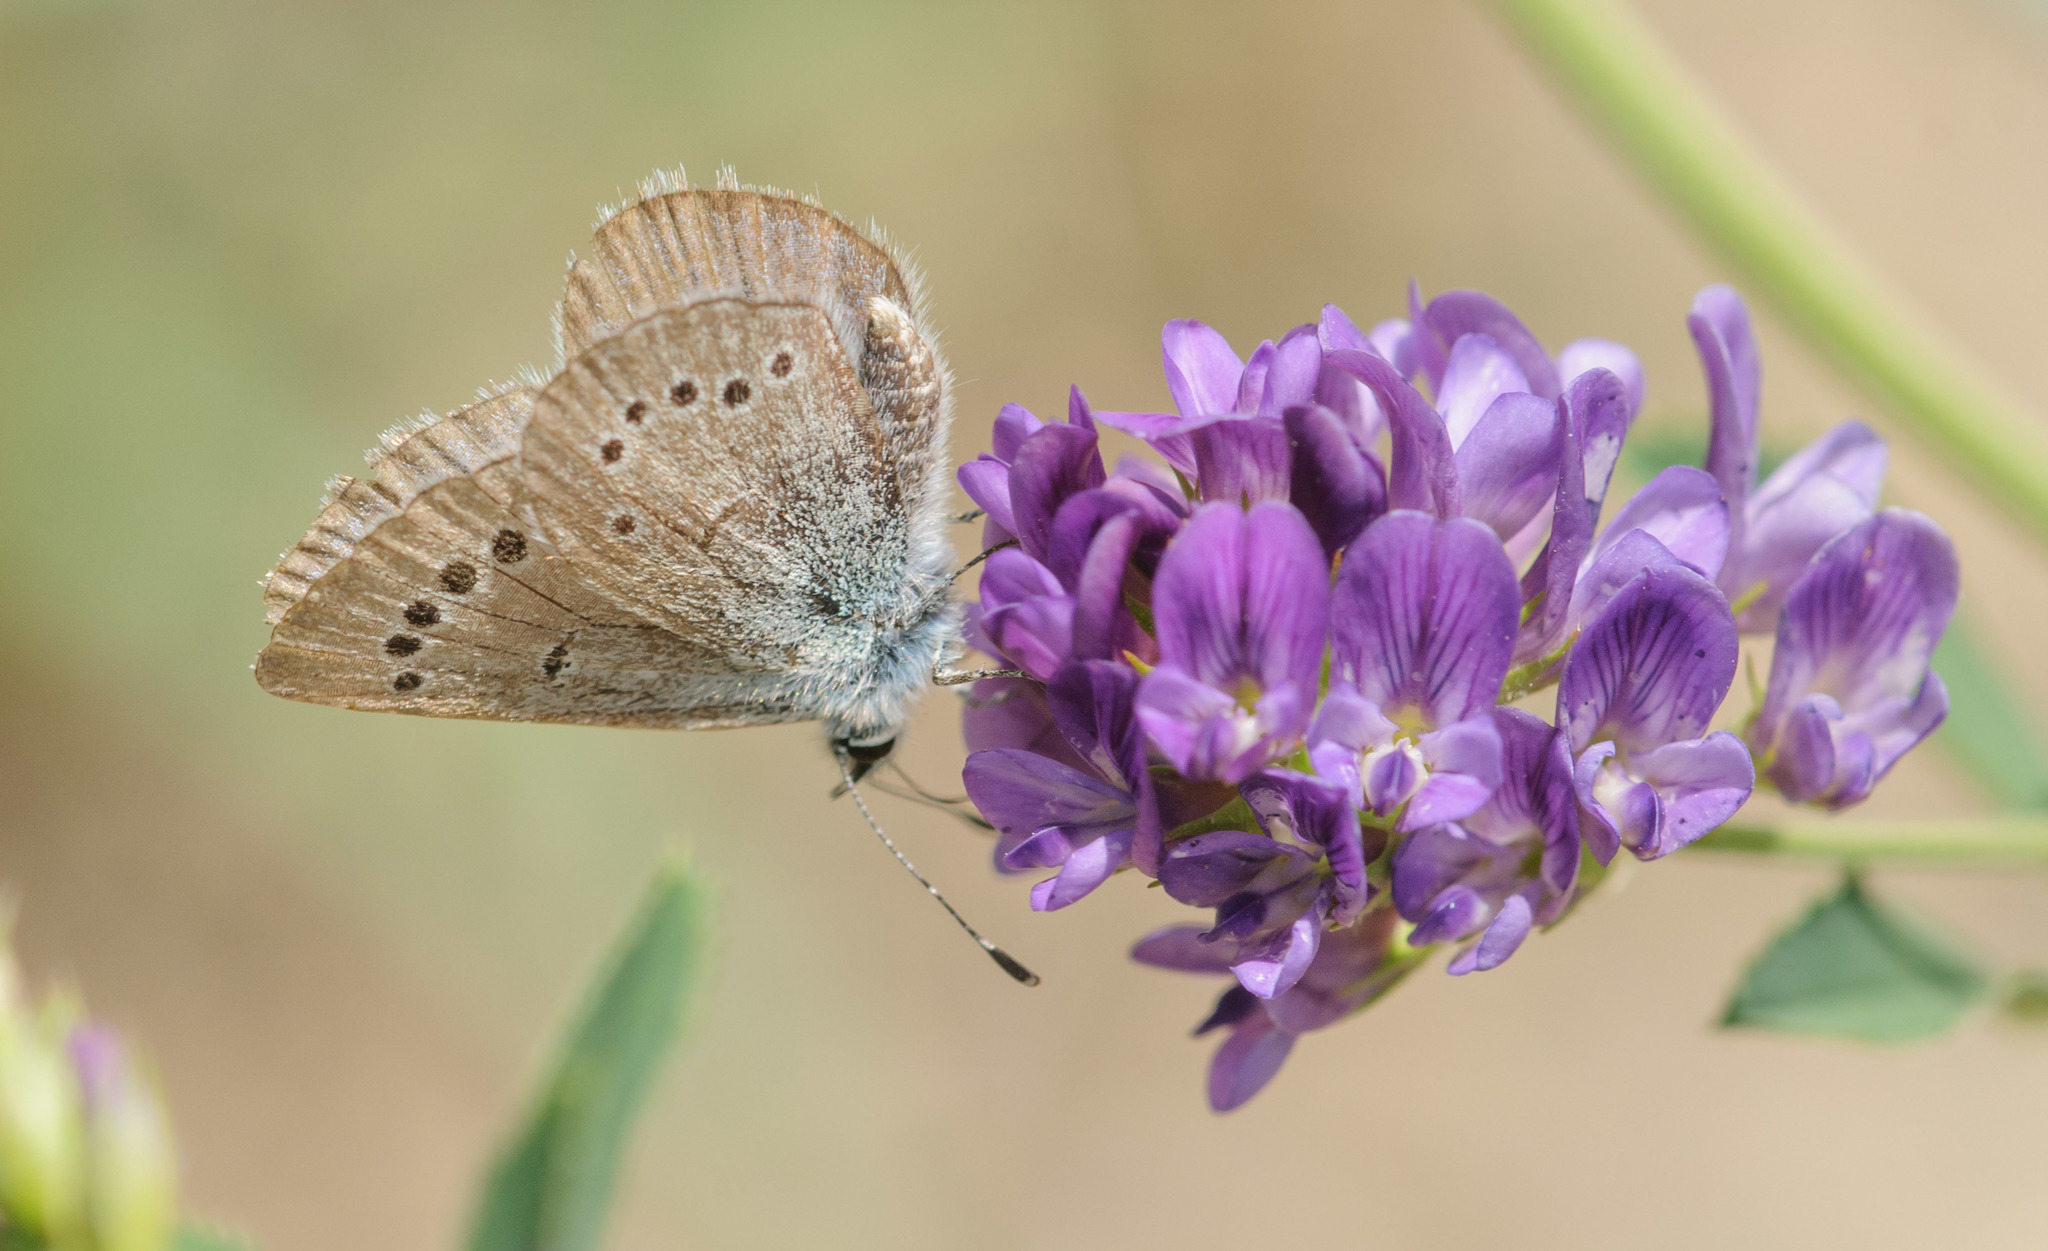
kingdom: Animalia
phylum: Arthropoda
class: Insecta
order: Lepidoptera
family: Lycaenidae
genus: Glaucopsyche
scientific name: Glaucopsyche lygdamus
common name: Silvery blue
